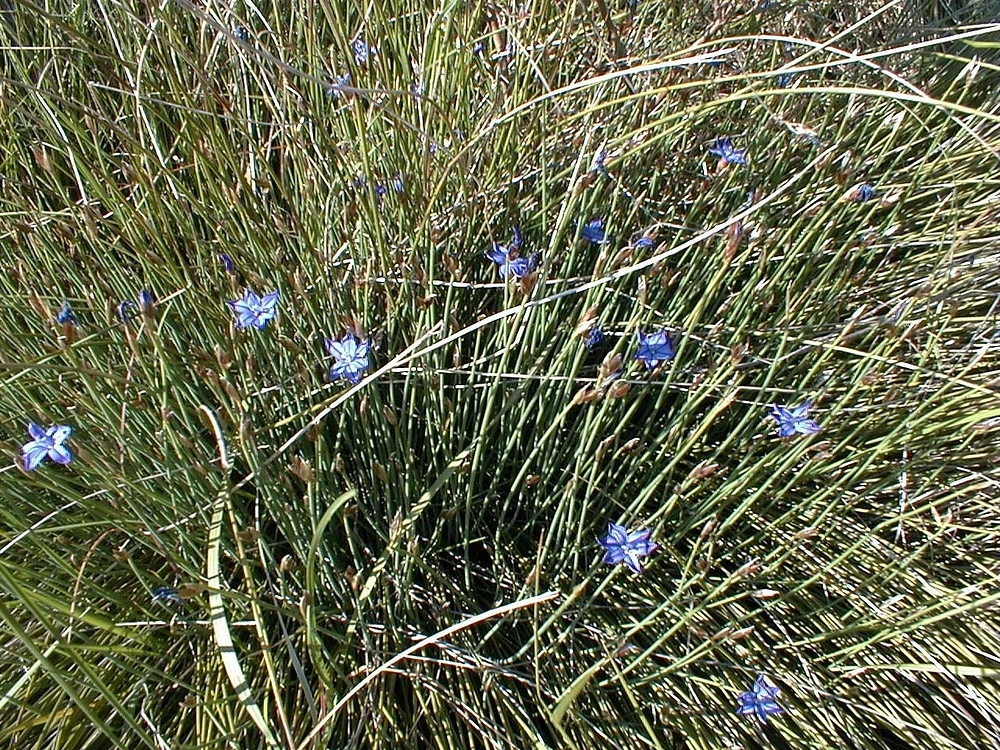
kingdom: Plantae
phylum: Tracheophyta
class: Liliopsida
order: Asparagales
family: Asparagaceae
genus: Aphyllanthes
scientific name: Aphyllanthes monspeliensis
